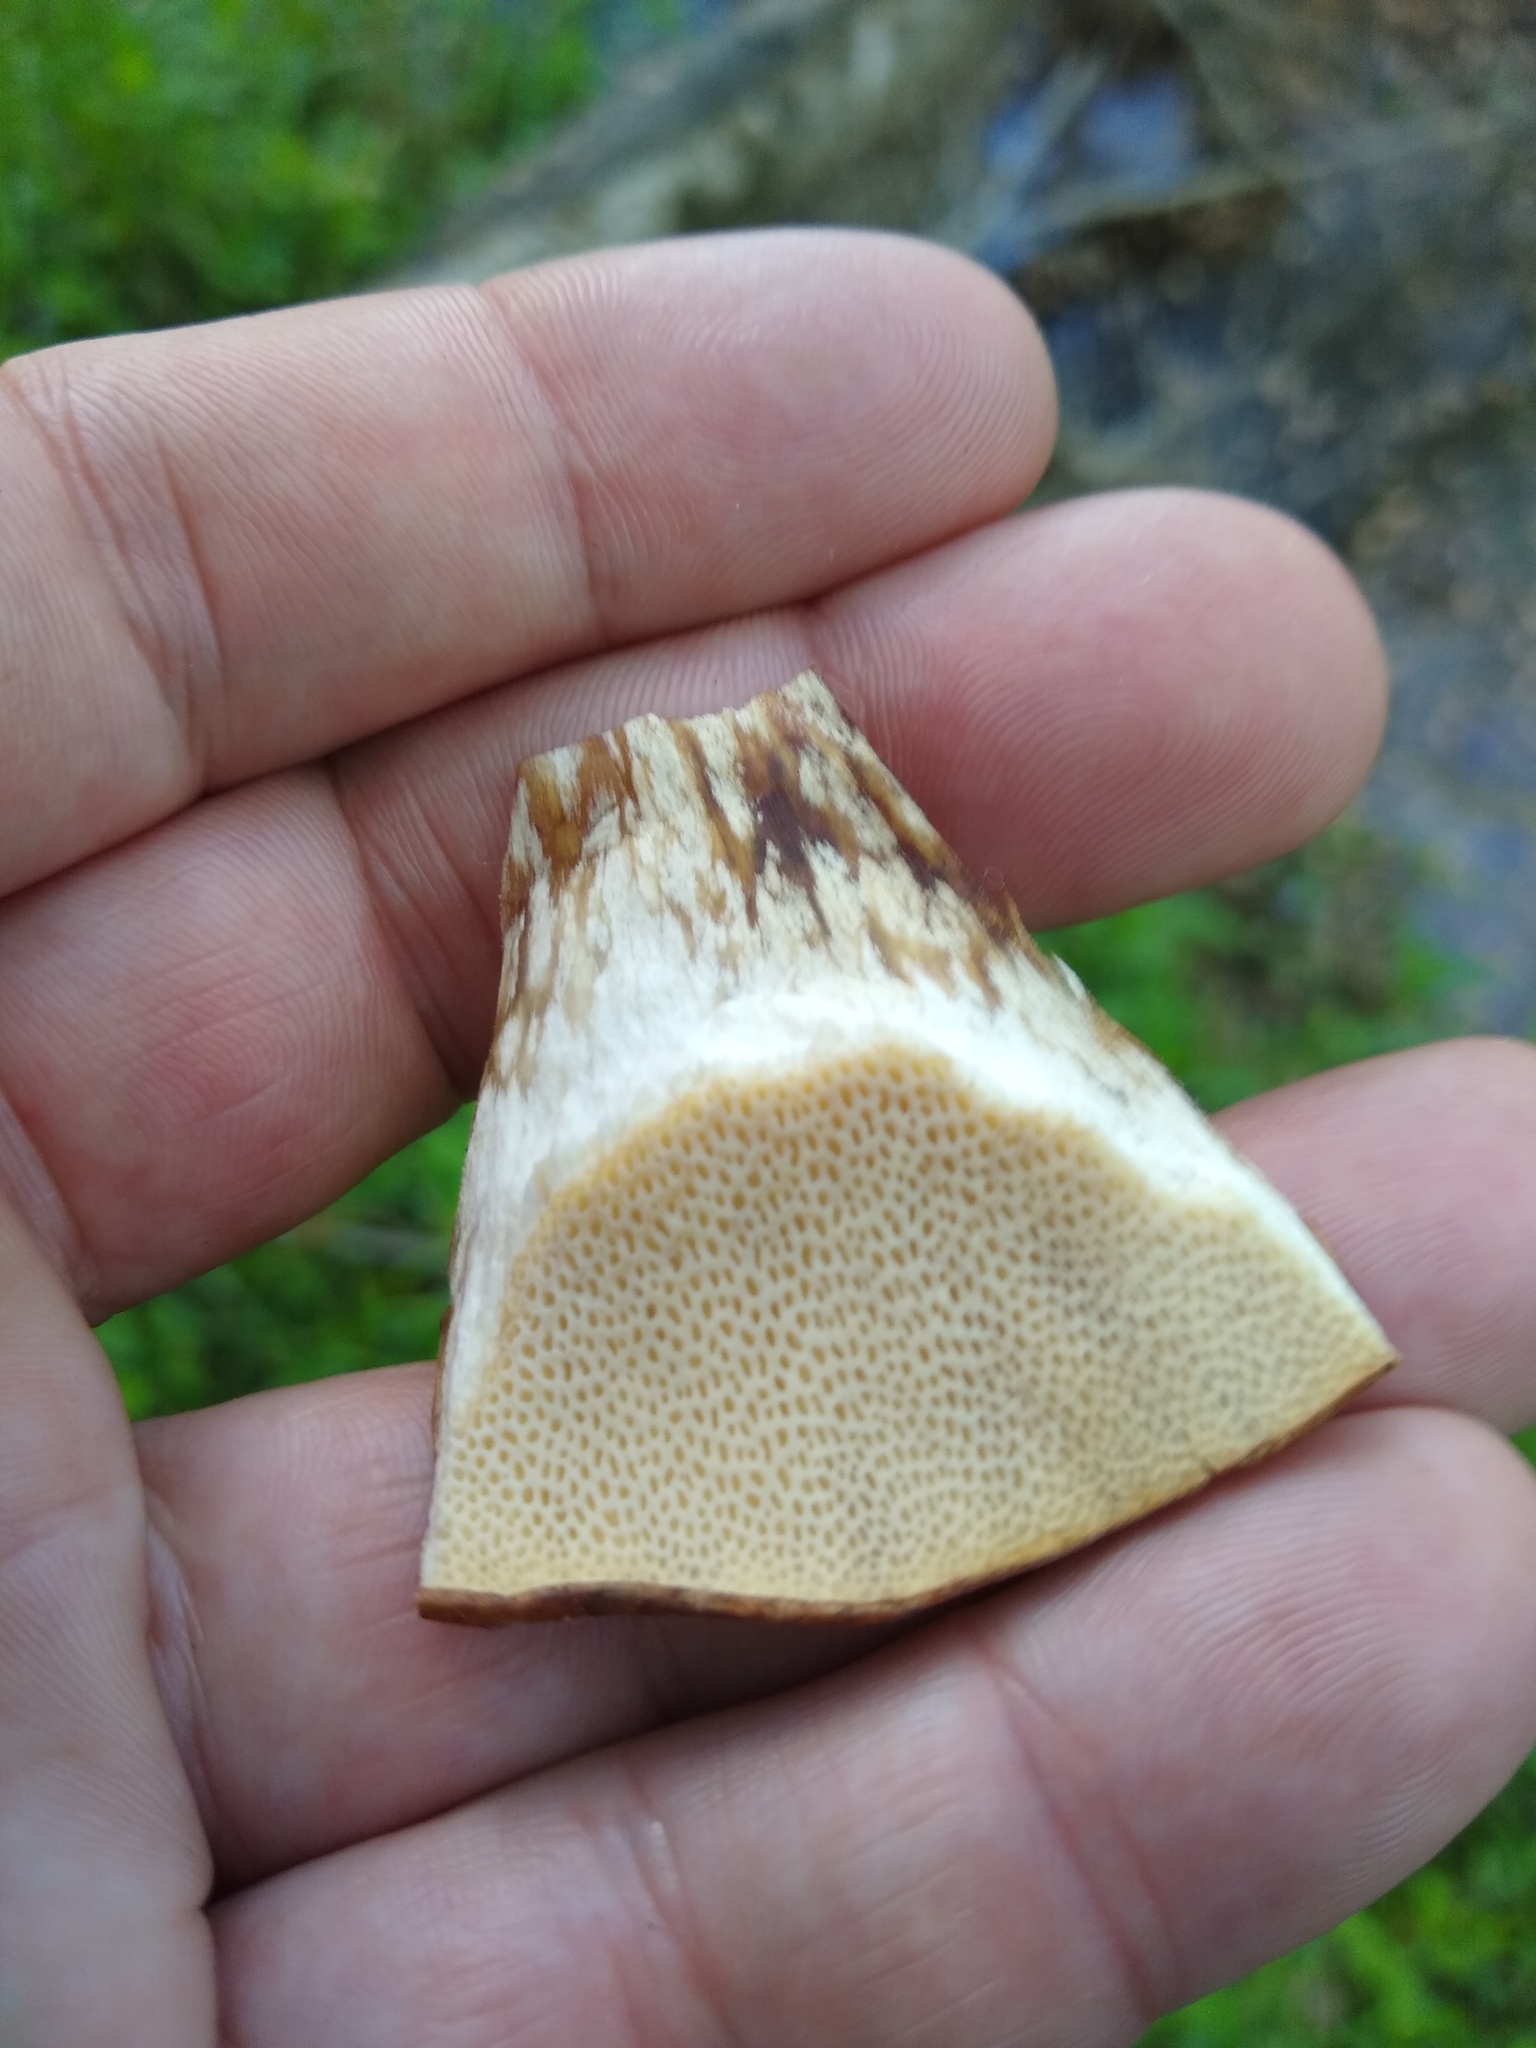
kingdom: Fungi
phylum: Basidiomycota
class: Agaricomycetes
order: Polyporales
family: Polyporaceae
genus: Cerioporus
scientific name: Cerioporus squamosus
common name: Dryad's saddle
